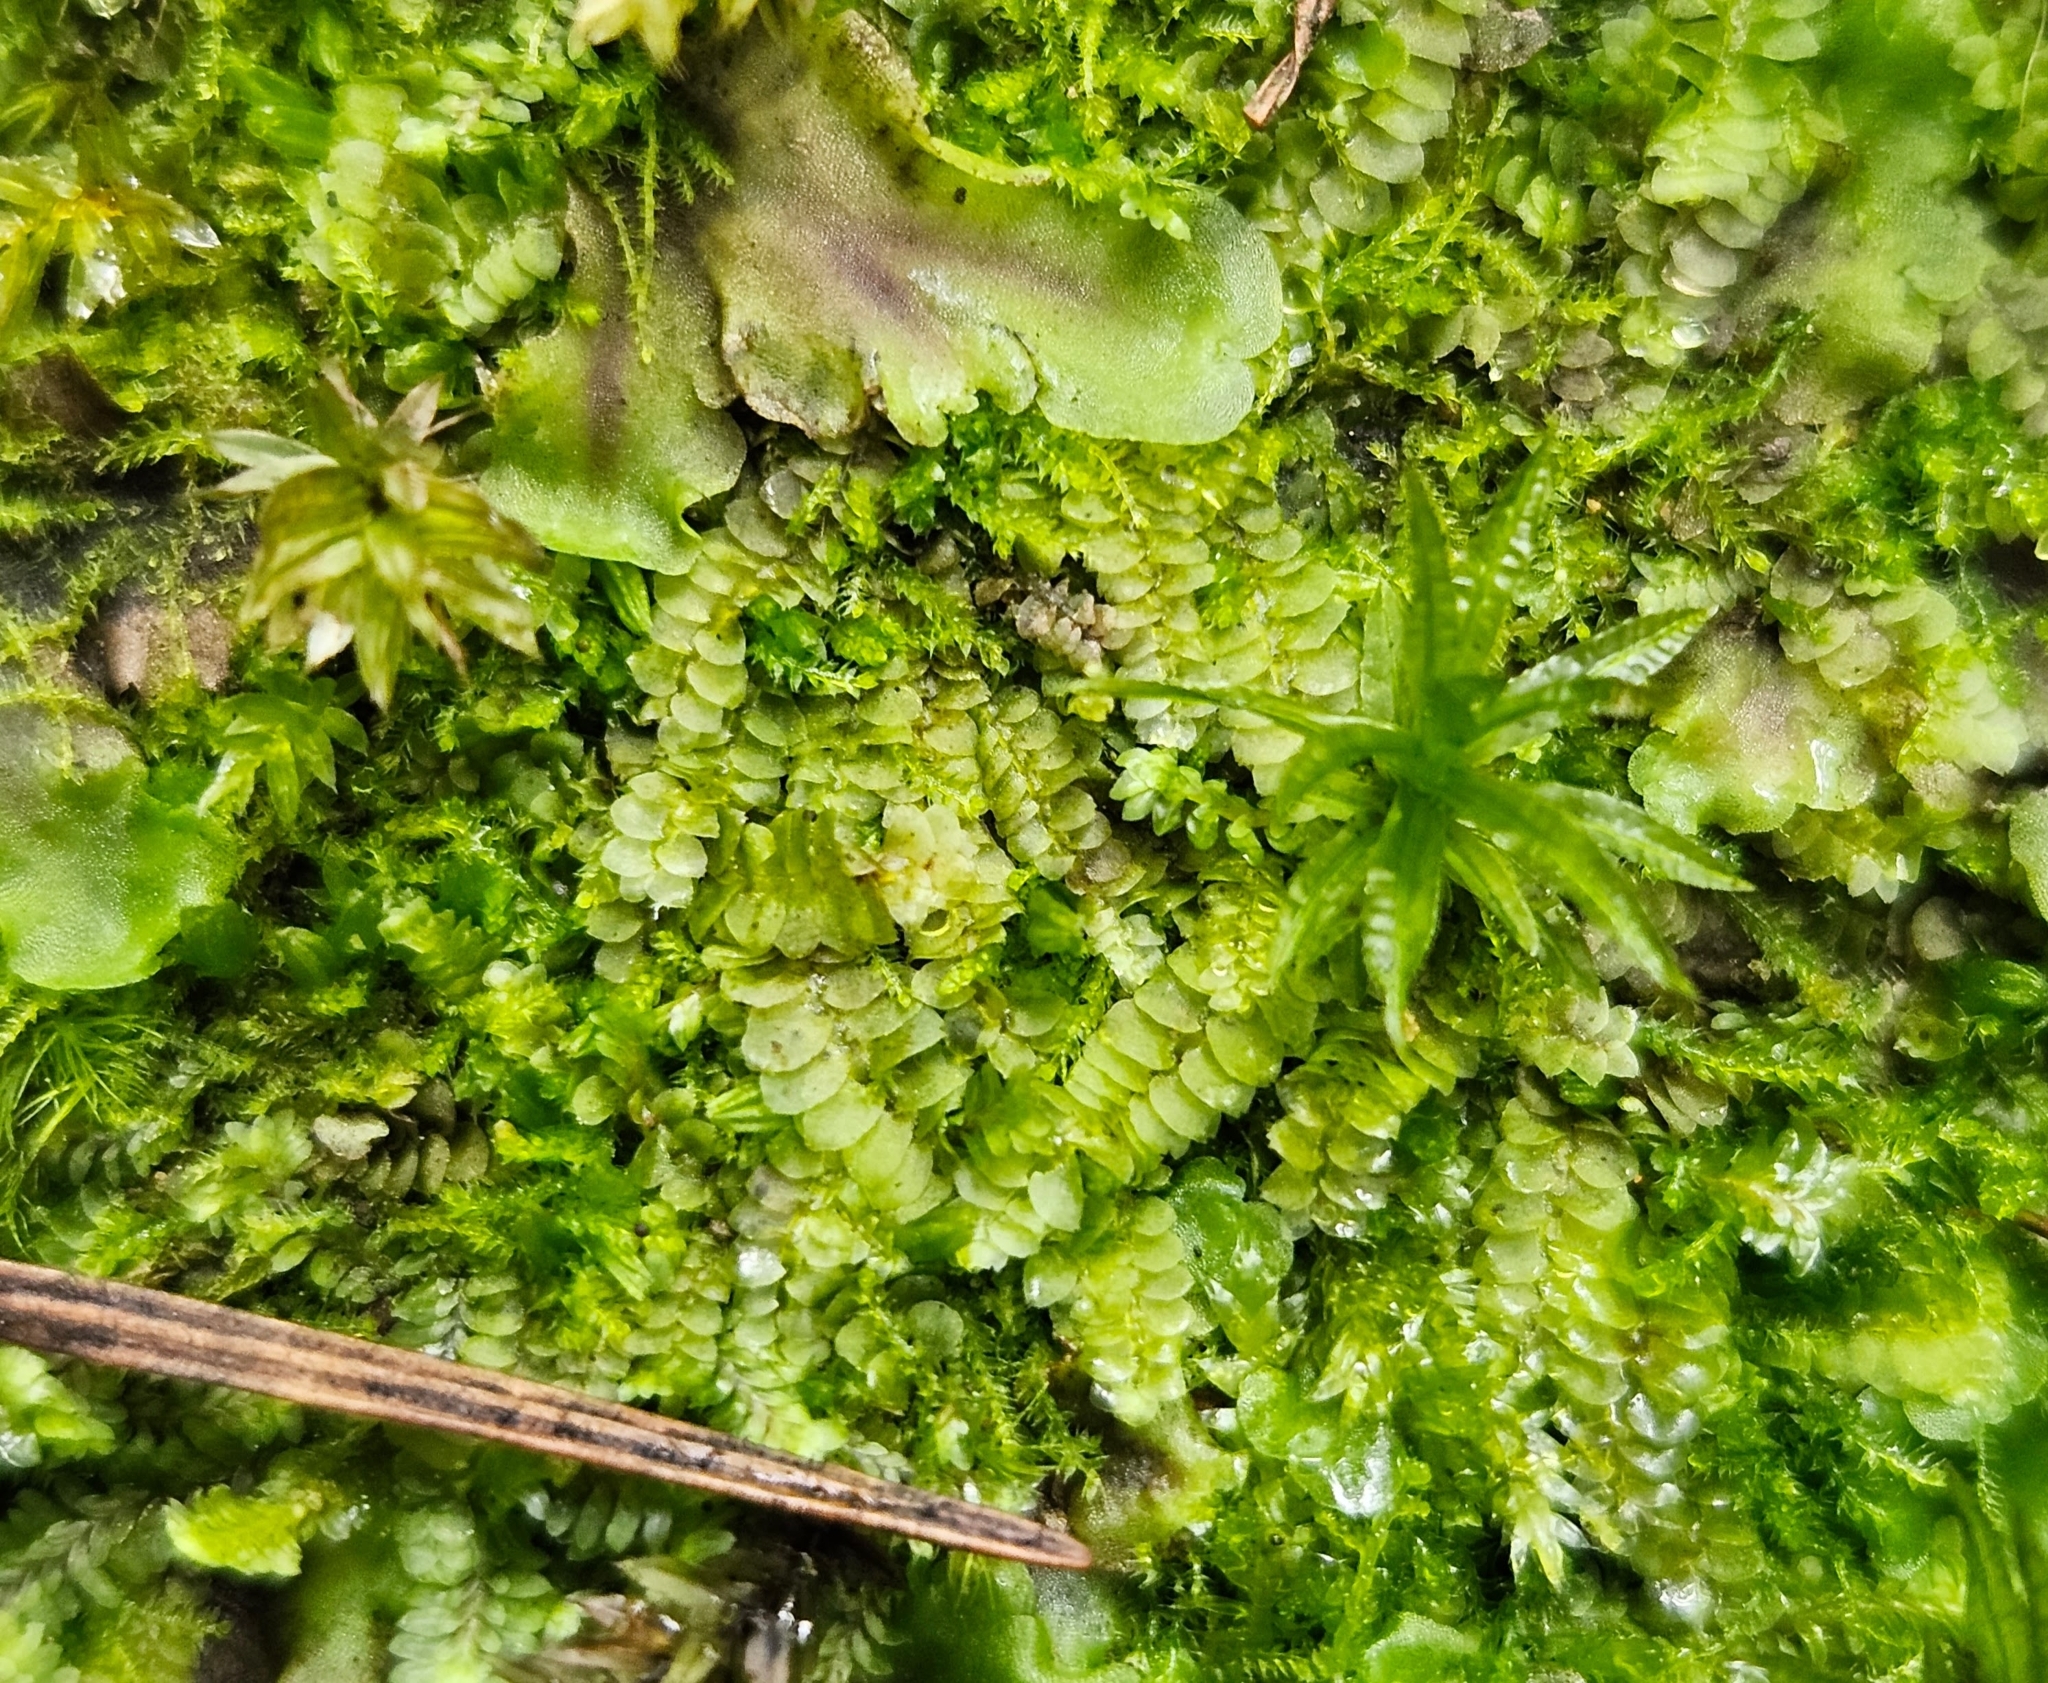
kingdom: Plantae
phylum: Marchantiophyta
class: Jungermanniopsida
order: Jungermanniales
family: Calypogeiaceae
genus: Calypogeia
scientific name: Calypogeia fissa
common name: Common pouchwort
